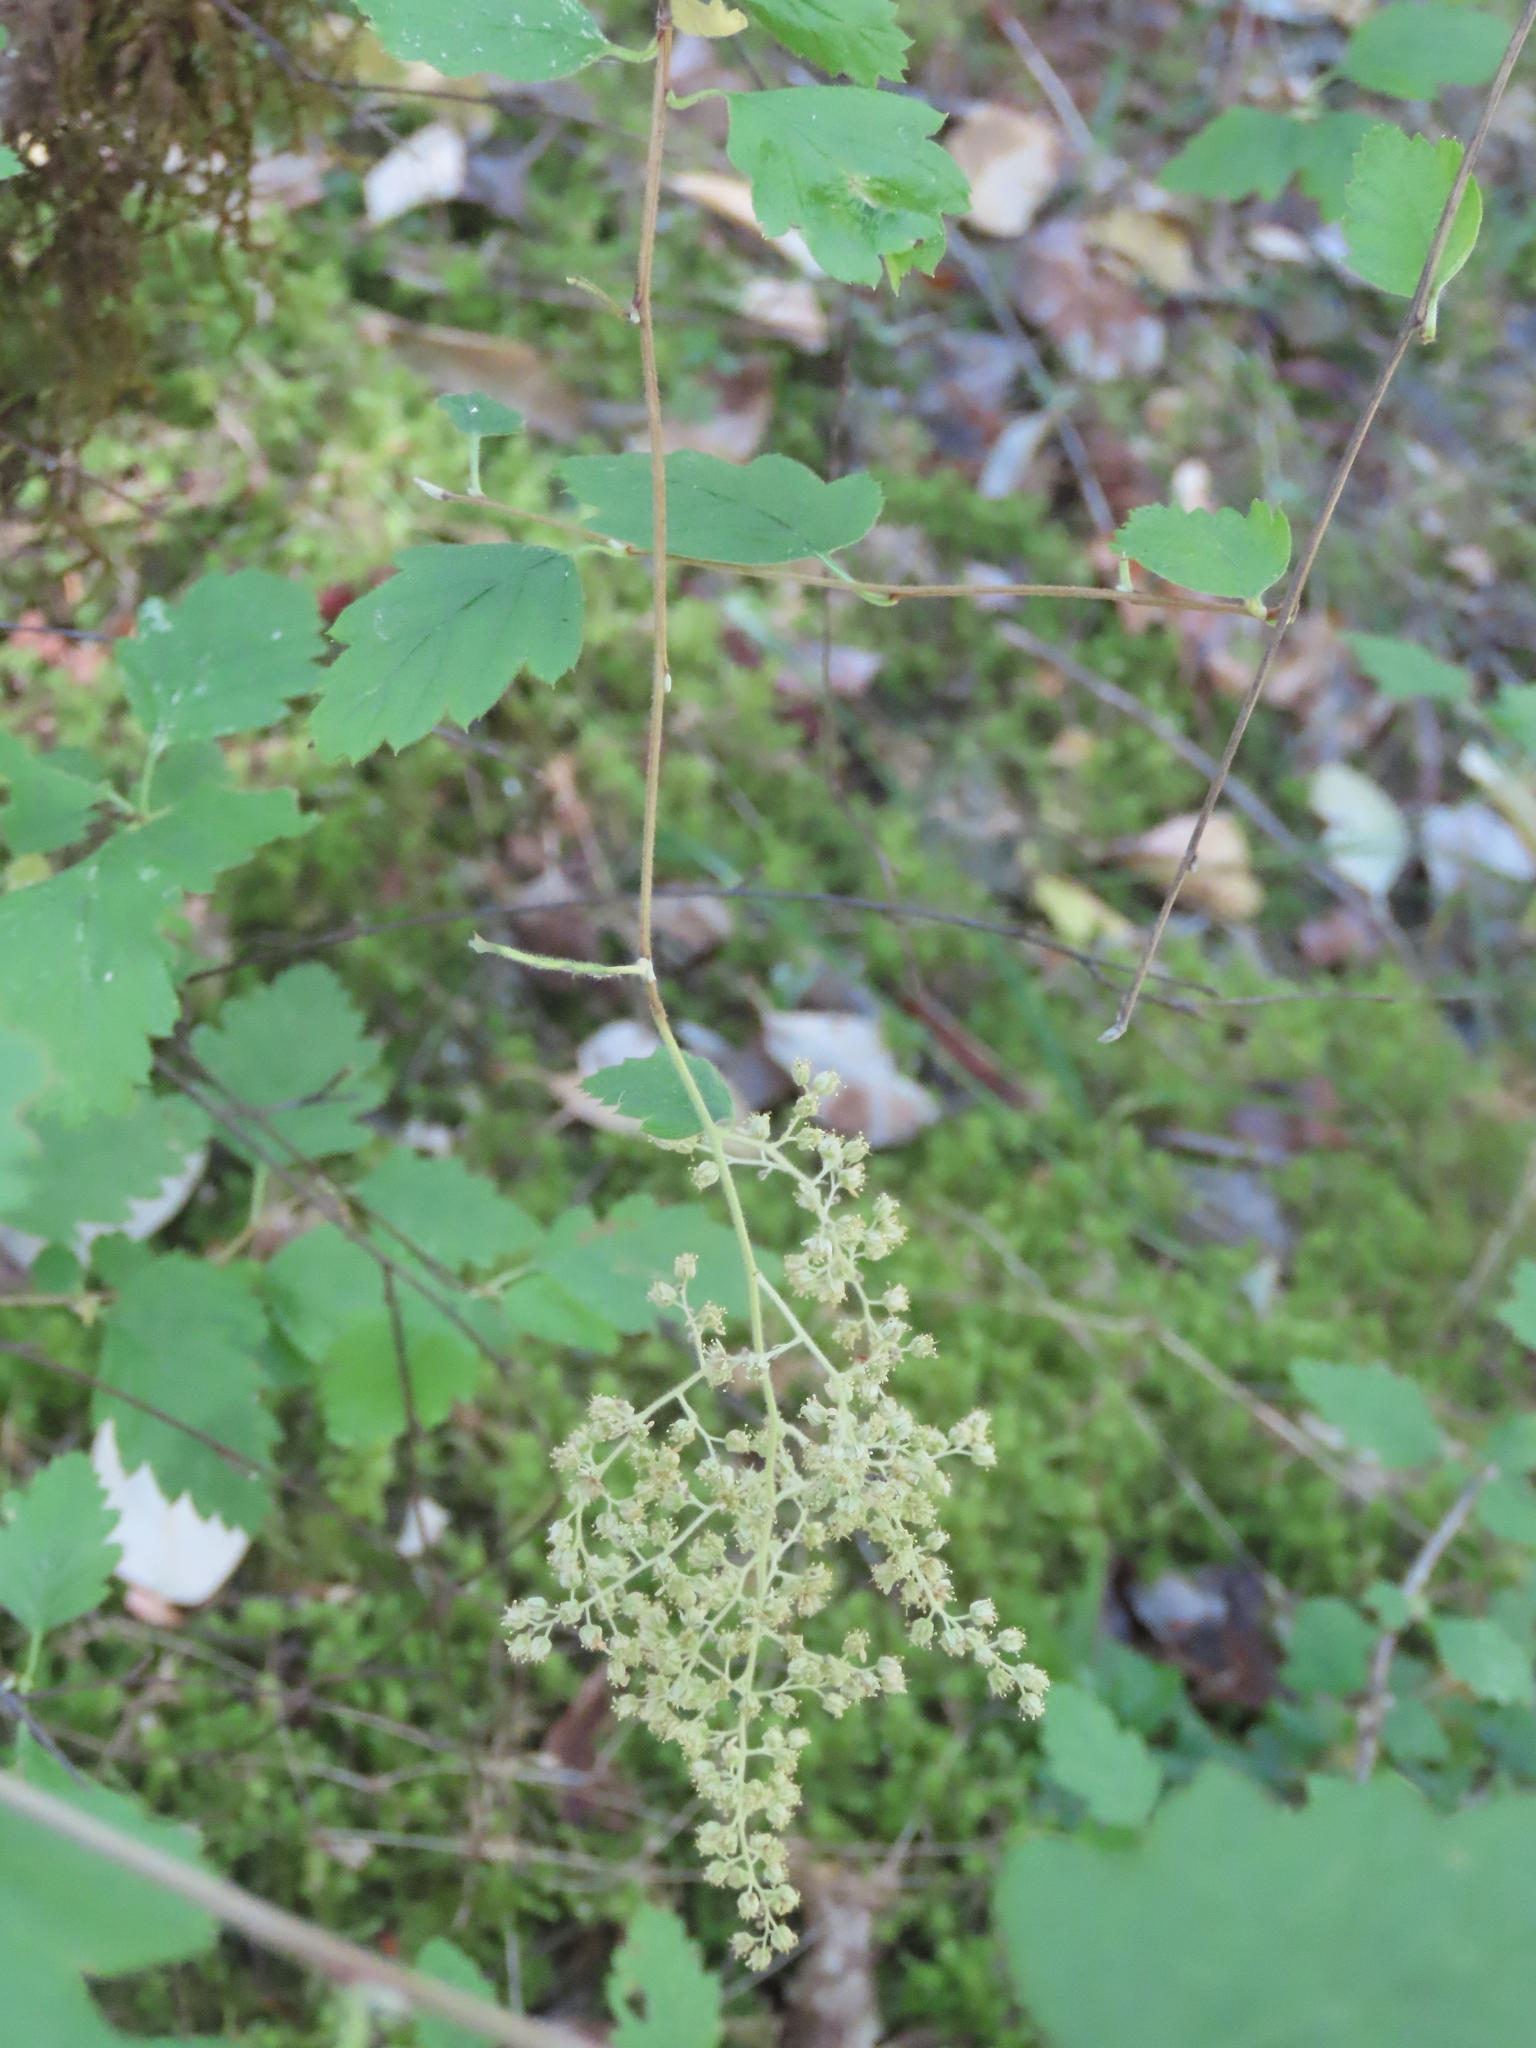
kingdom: Plantae
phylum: Tracheophyta
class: Magnoliopsida
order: Rosales
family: Rosaceae
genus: Holodiscus
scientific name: Holodiscus discolor
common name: Oceanspray
